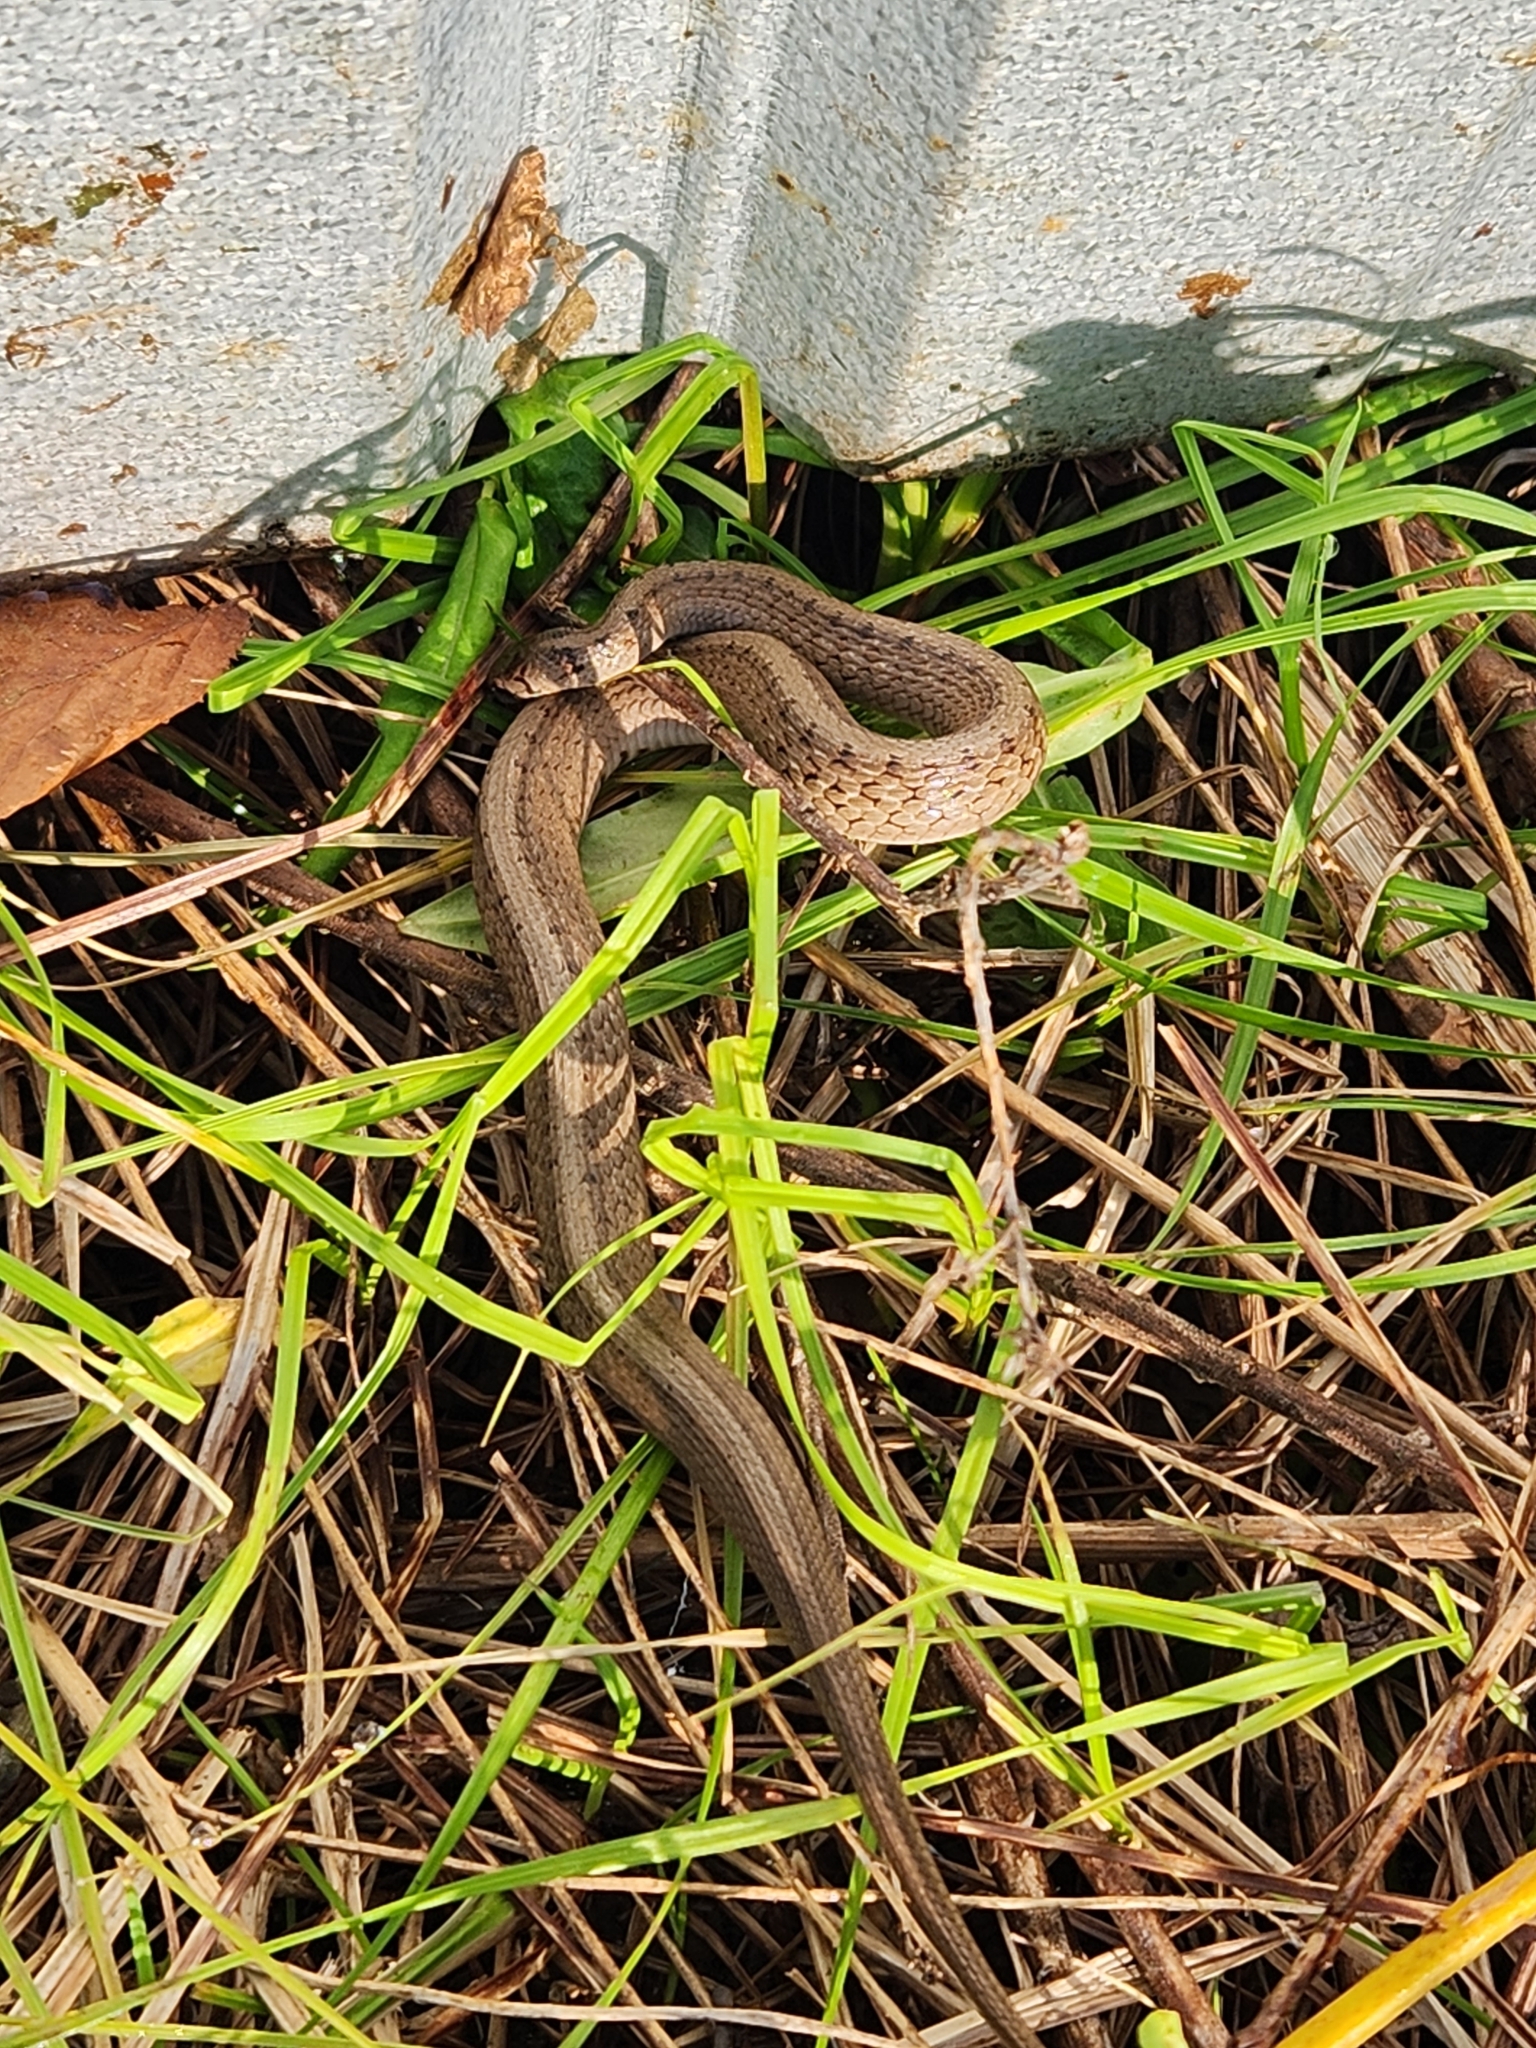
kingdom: Animalia
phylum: Chordata
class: Squamata
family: Colubridae
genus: Storeria
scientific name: Storeria dekayi
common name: (dekay’s) brown snake
